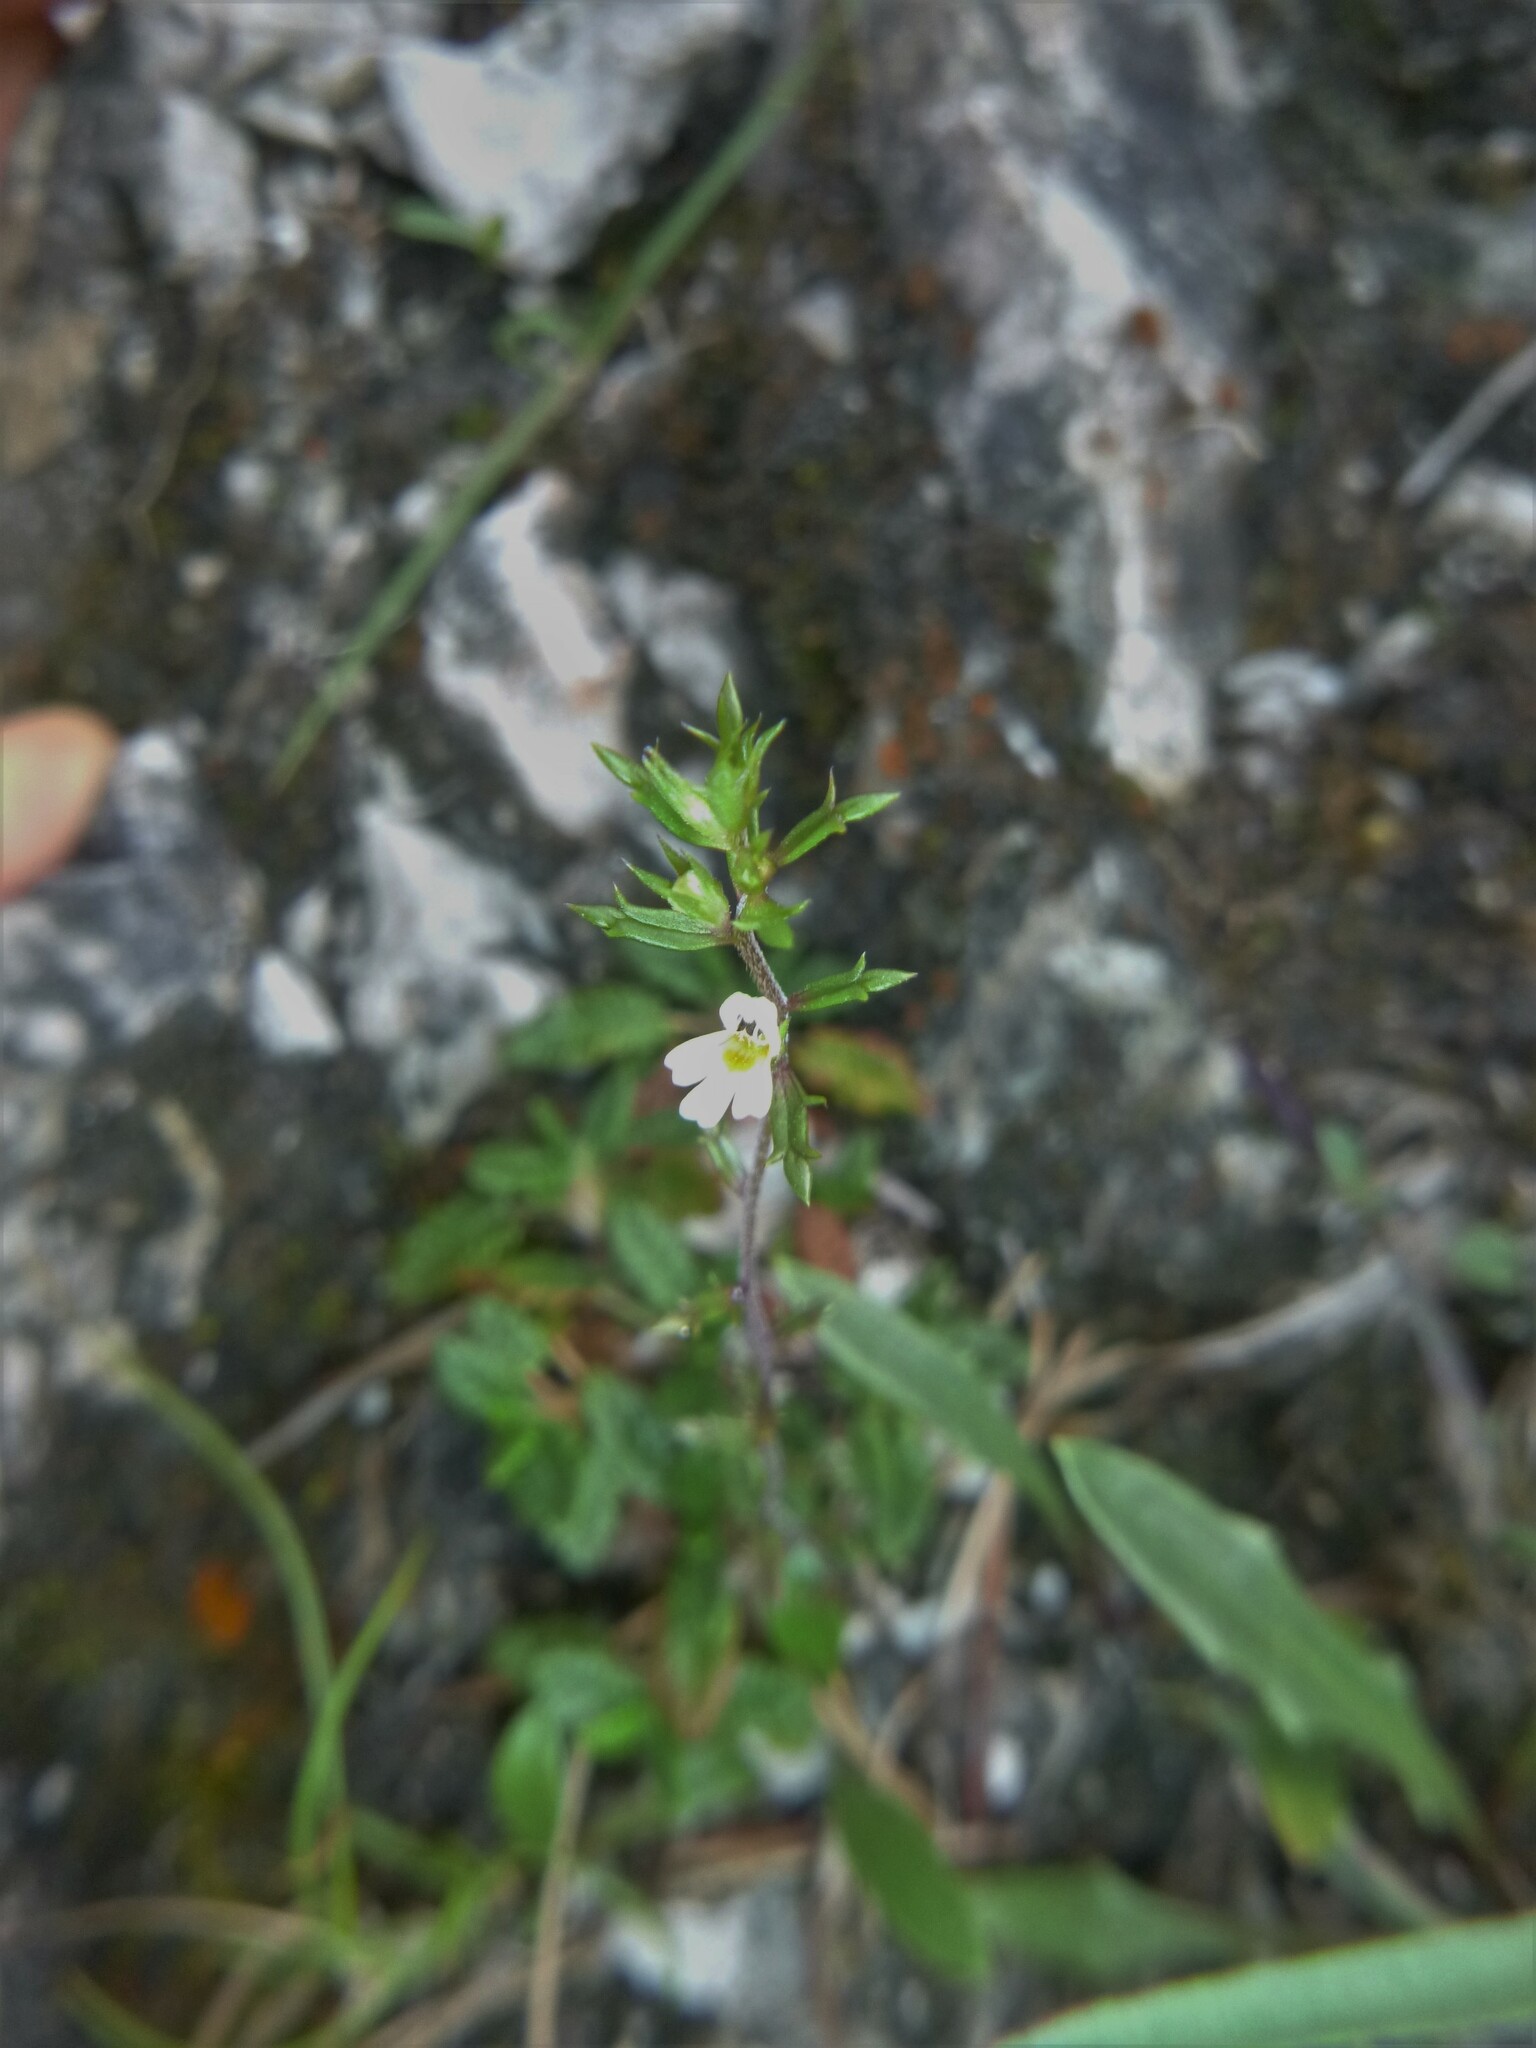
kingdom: Plantae
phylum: Tracheophyta
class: Magnoliopsida
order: Lamiales
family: Orobanchaceae
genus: Euphrasia
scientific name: Euphrasia salisburgensis
